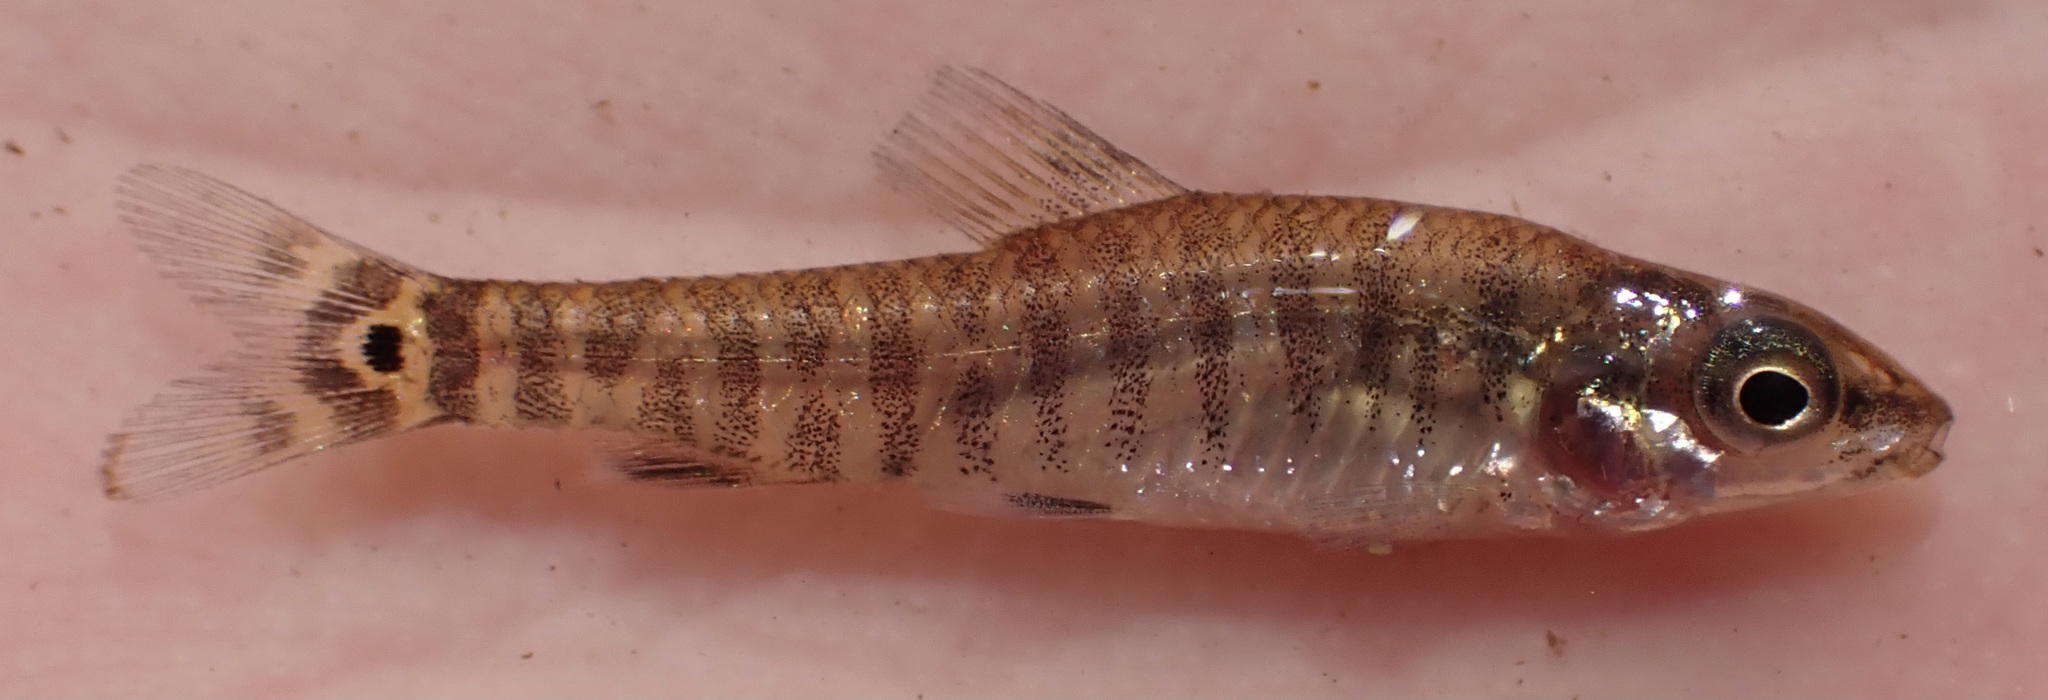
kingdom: Animalia
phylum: Chordata
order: Characiformes
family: Distichodontidae
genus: Nannocharax
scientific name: Nannocharax machadoi
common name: Dwarf citharine
